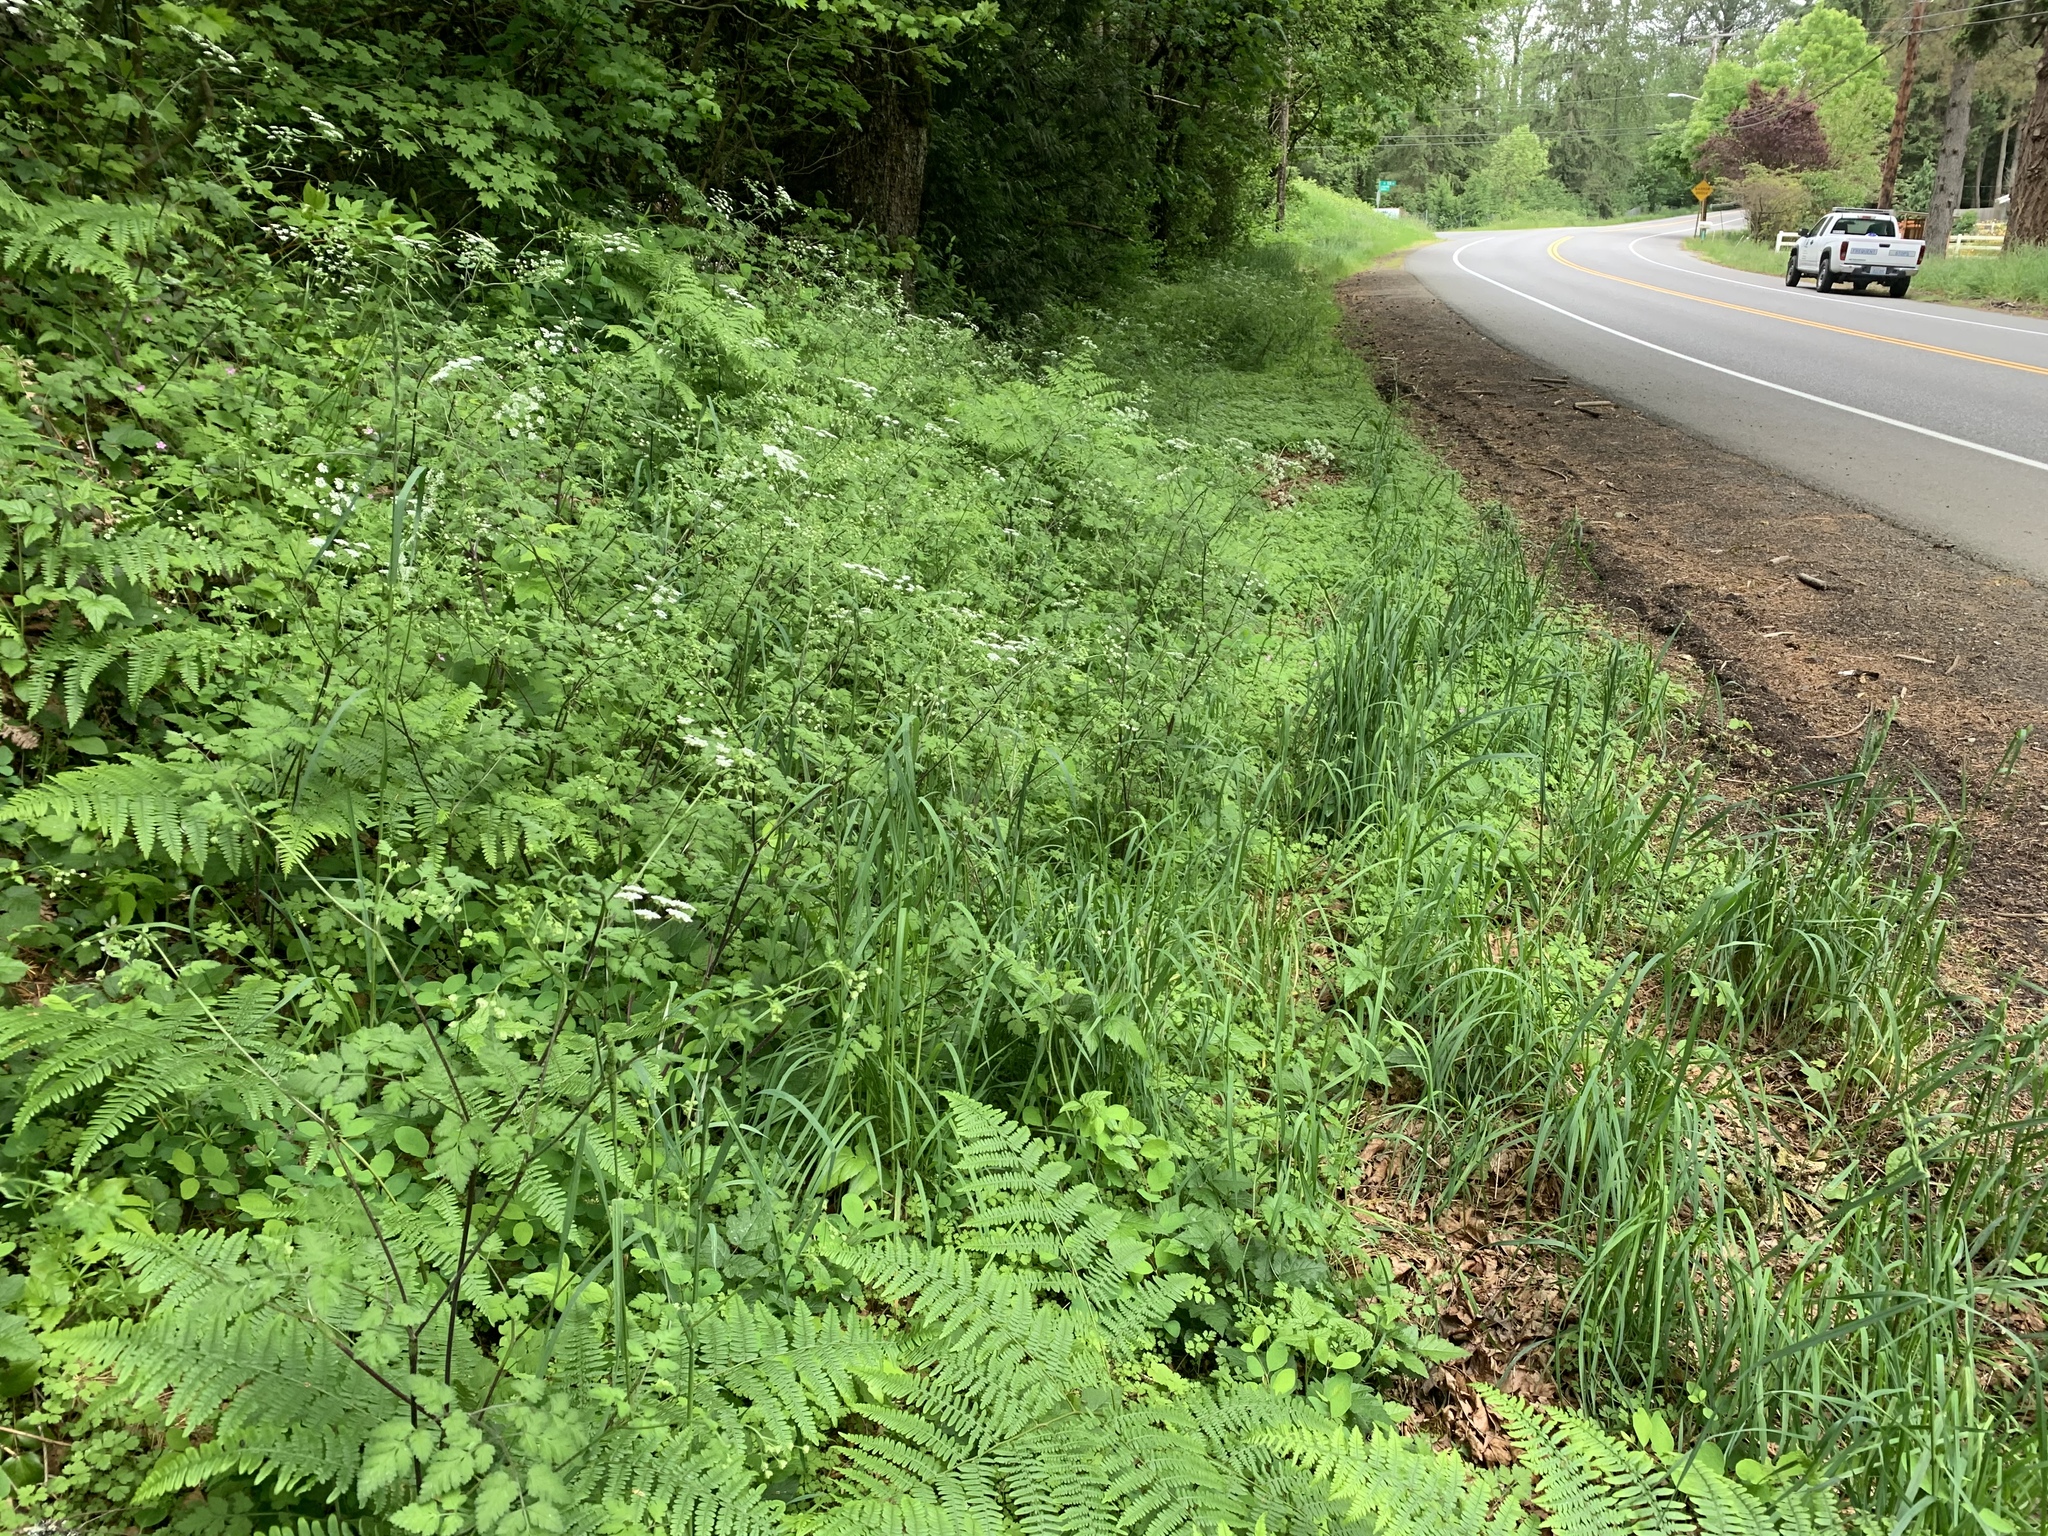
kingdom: Plantae
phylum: Tracheophyta
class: Magnoliopsida
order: Apiales
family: Apiaceae
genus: Chaerophyllum
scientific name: Chaerophyllum temulum
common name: Rough chervil
